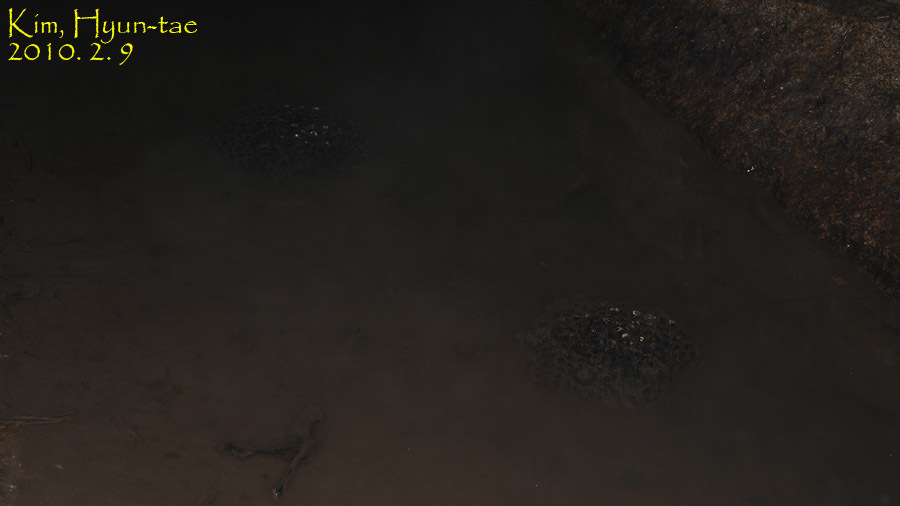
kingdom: Animalia
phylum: Chordata
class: Amphibia
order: Anura
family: Ranidae
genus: Rana
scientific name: Rana uenoi
